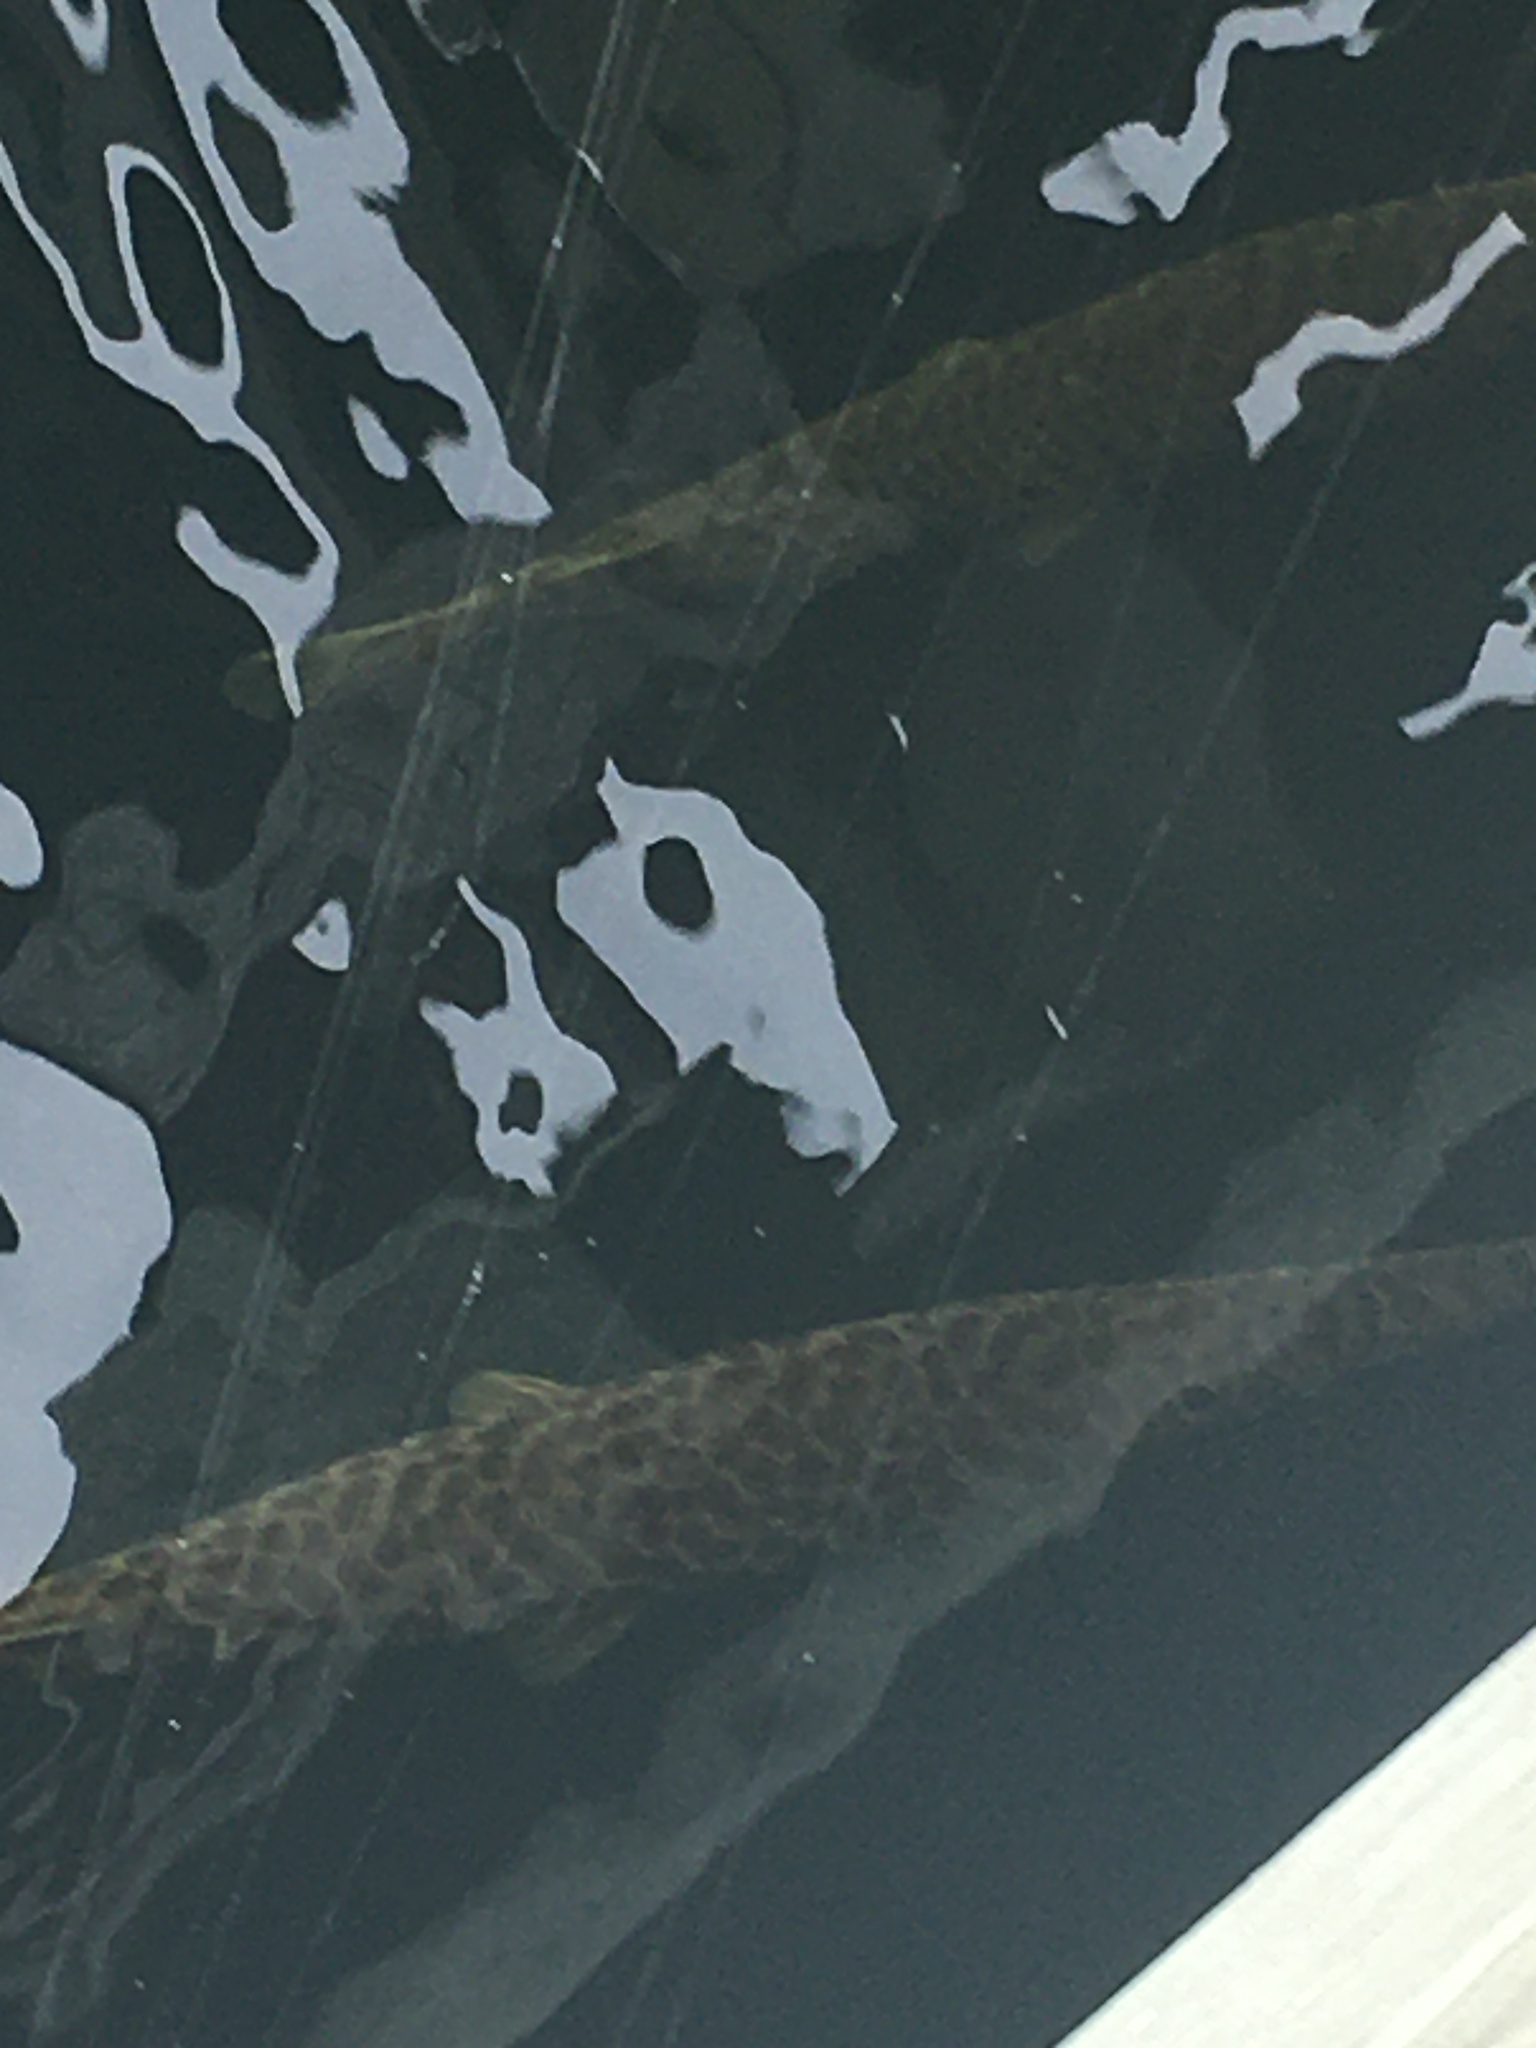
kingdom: Animalia
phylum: Chordata
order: Lepisosteiformes
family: Lepisosteidae
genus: Lepisosteus
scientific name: Lepisosteus platyrhincus
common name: Florida gar
